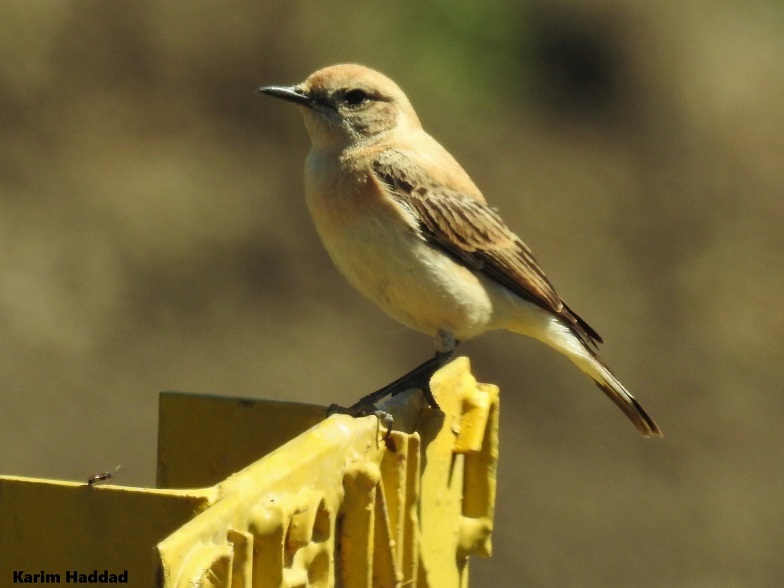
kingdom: Animalia
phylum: Chordata
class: Aves
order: Passeriformes
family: Muscicapidae
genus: Oenanthe
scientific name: Oenanthe hispanica
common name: Black-eared wheatear
